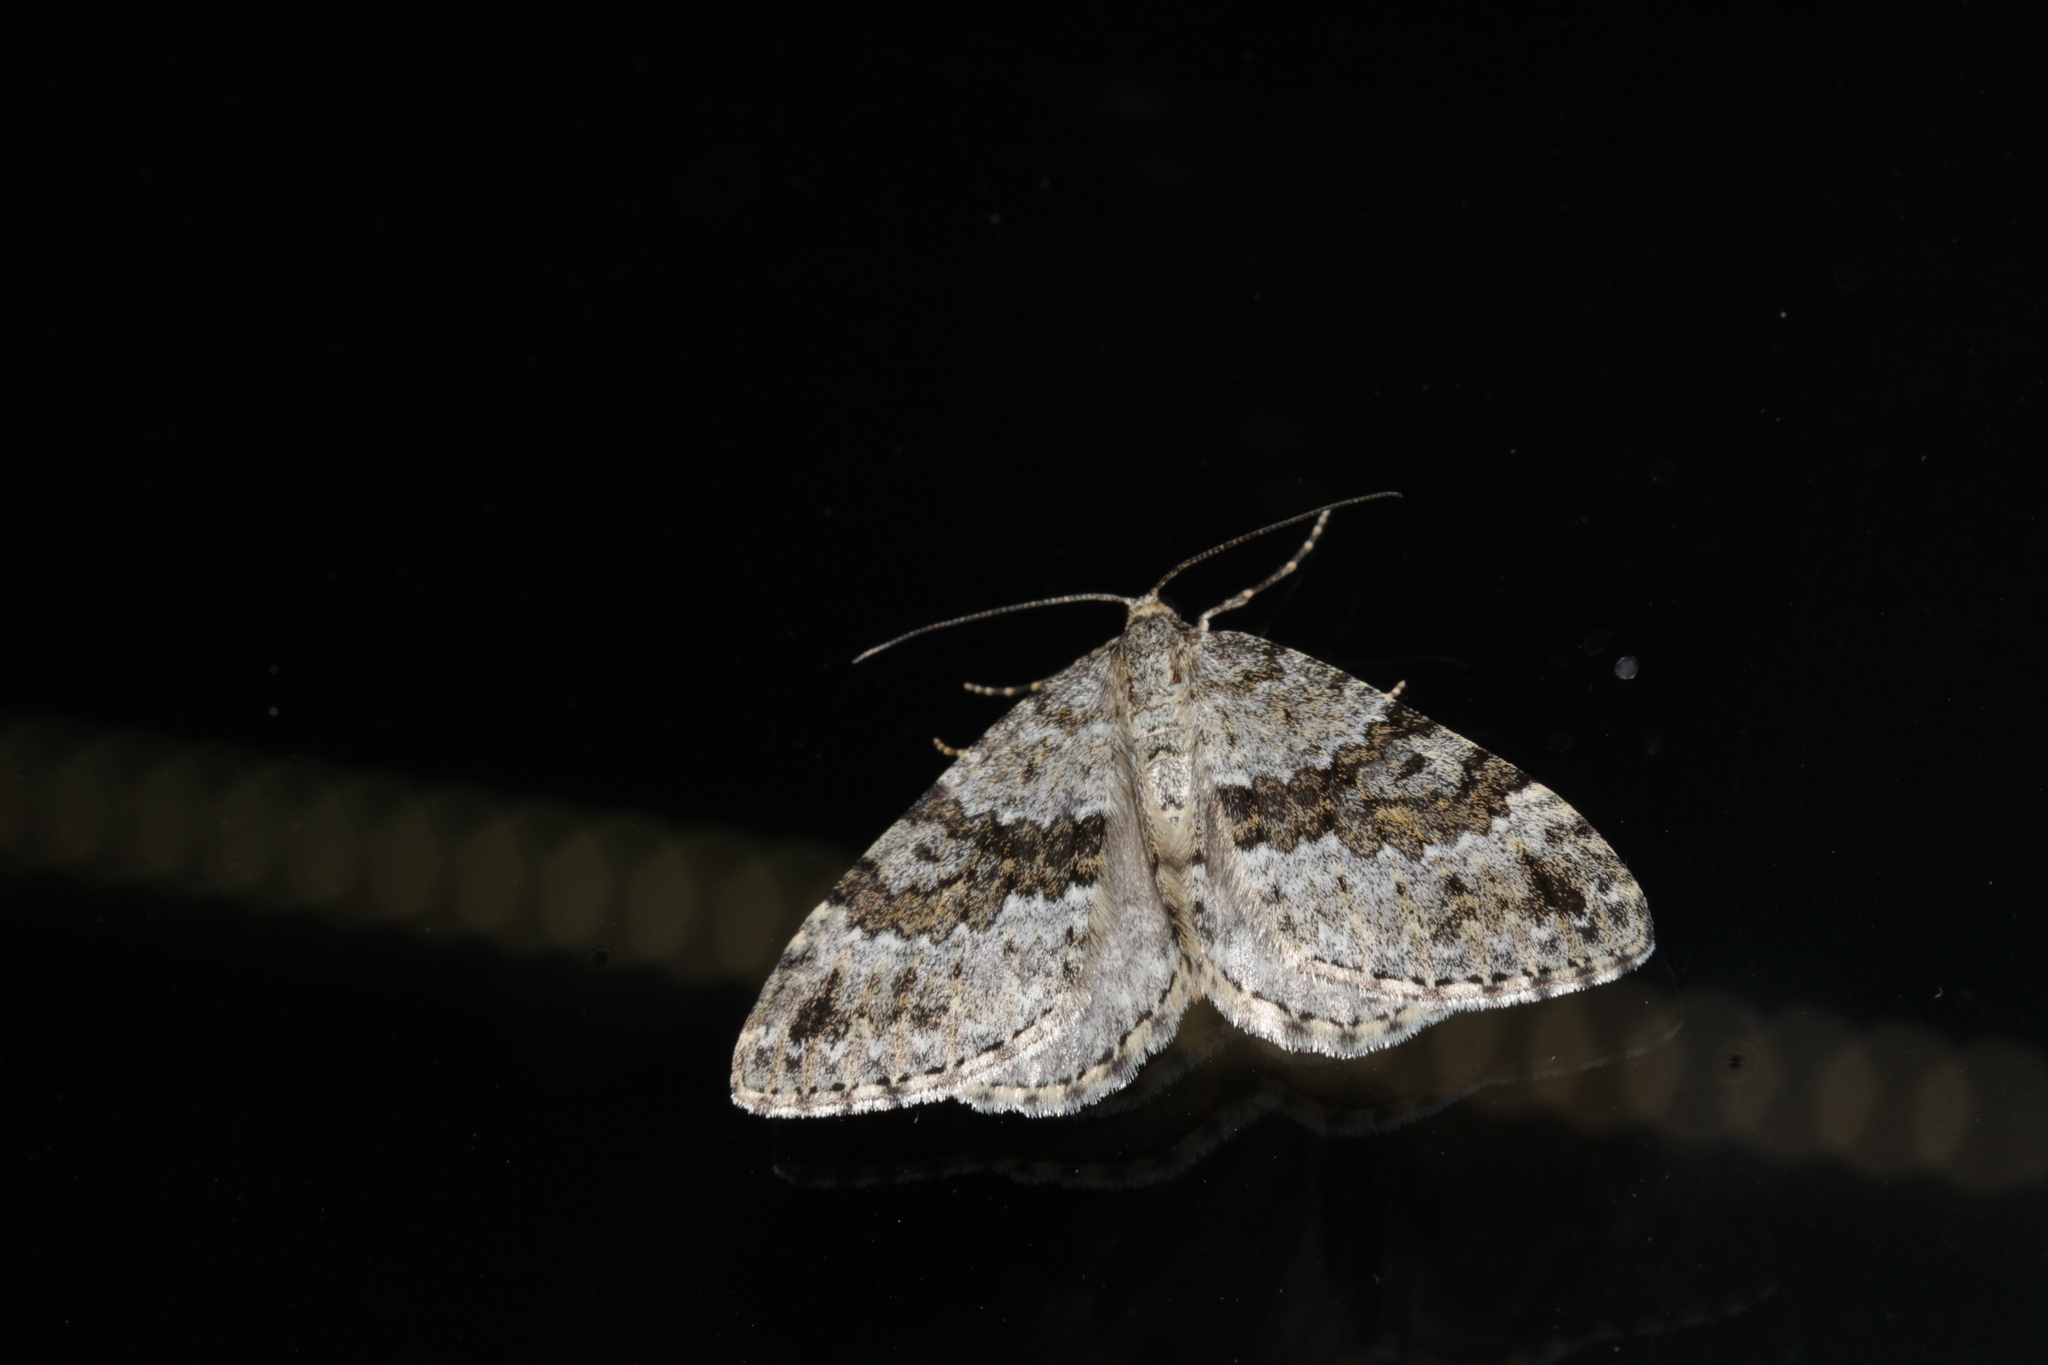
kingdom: Animalia
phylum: Arthropoda
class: Insecta
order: Lepidoptera
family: Geometridae
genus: Entephria
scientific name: Entephria caesiata
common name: Grey mountain moth
